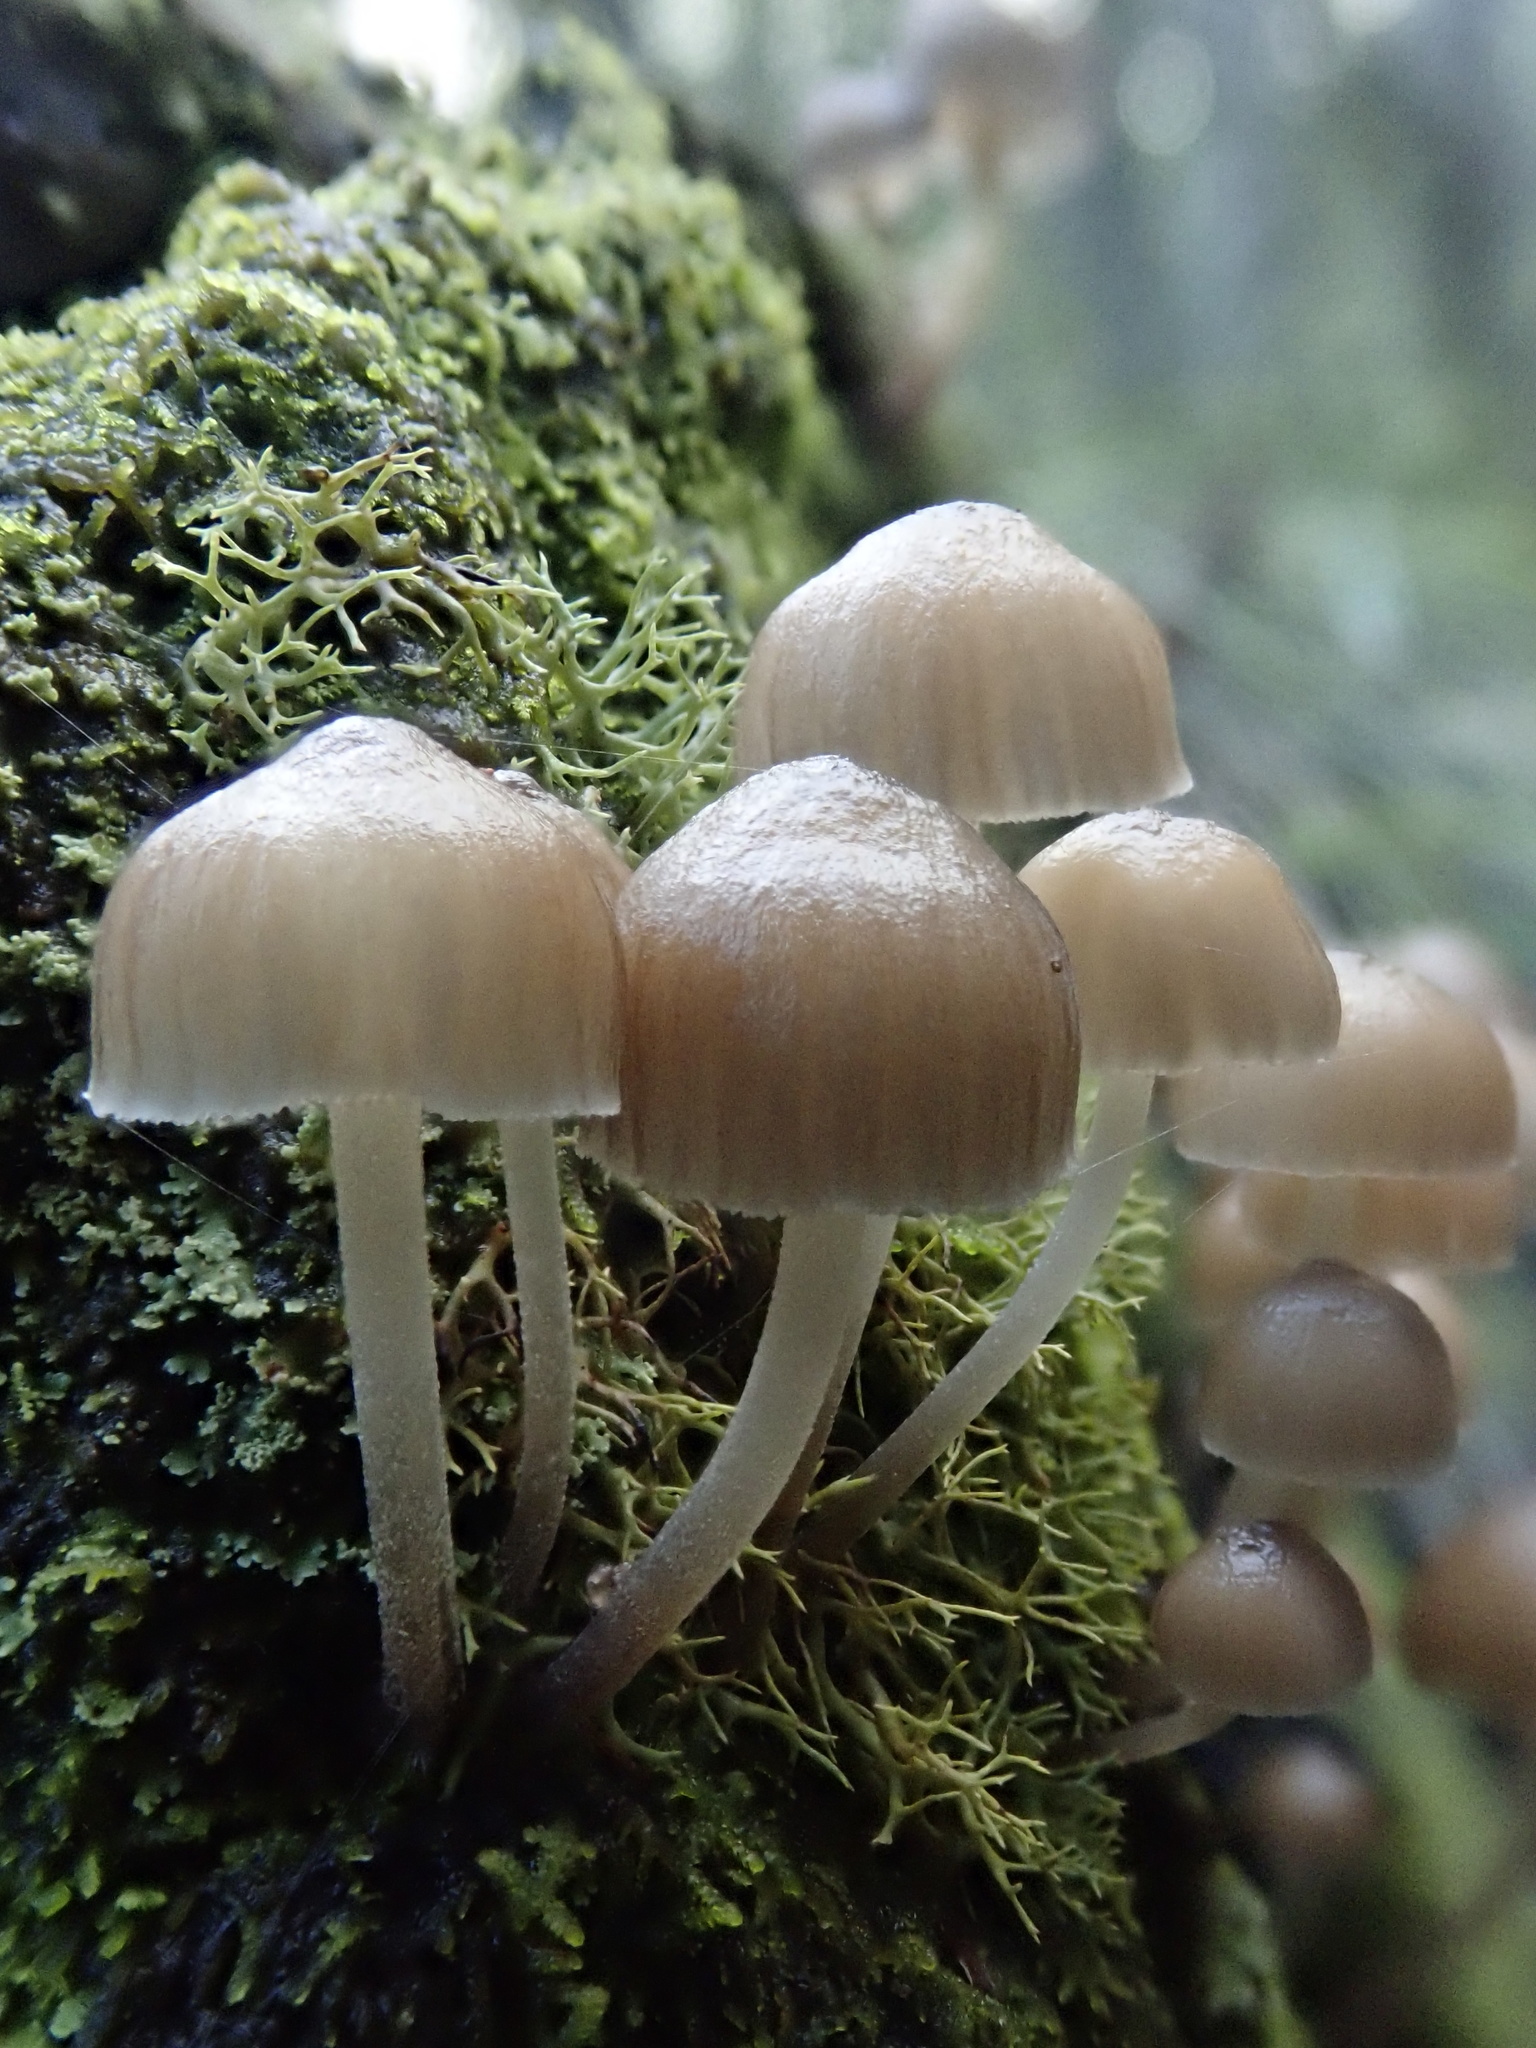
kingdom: Fungi
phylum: Basidiomycota
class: Agaricomycetes
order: Agaricales
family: Mycenaceae
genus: Mycena
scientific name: Mycena subgalericulata
